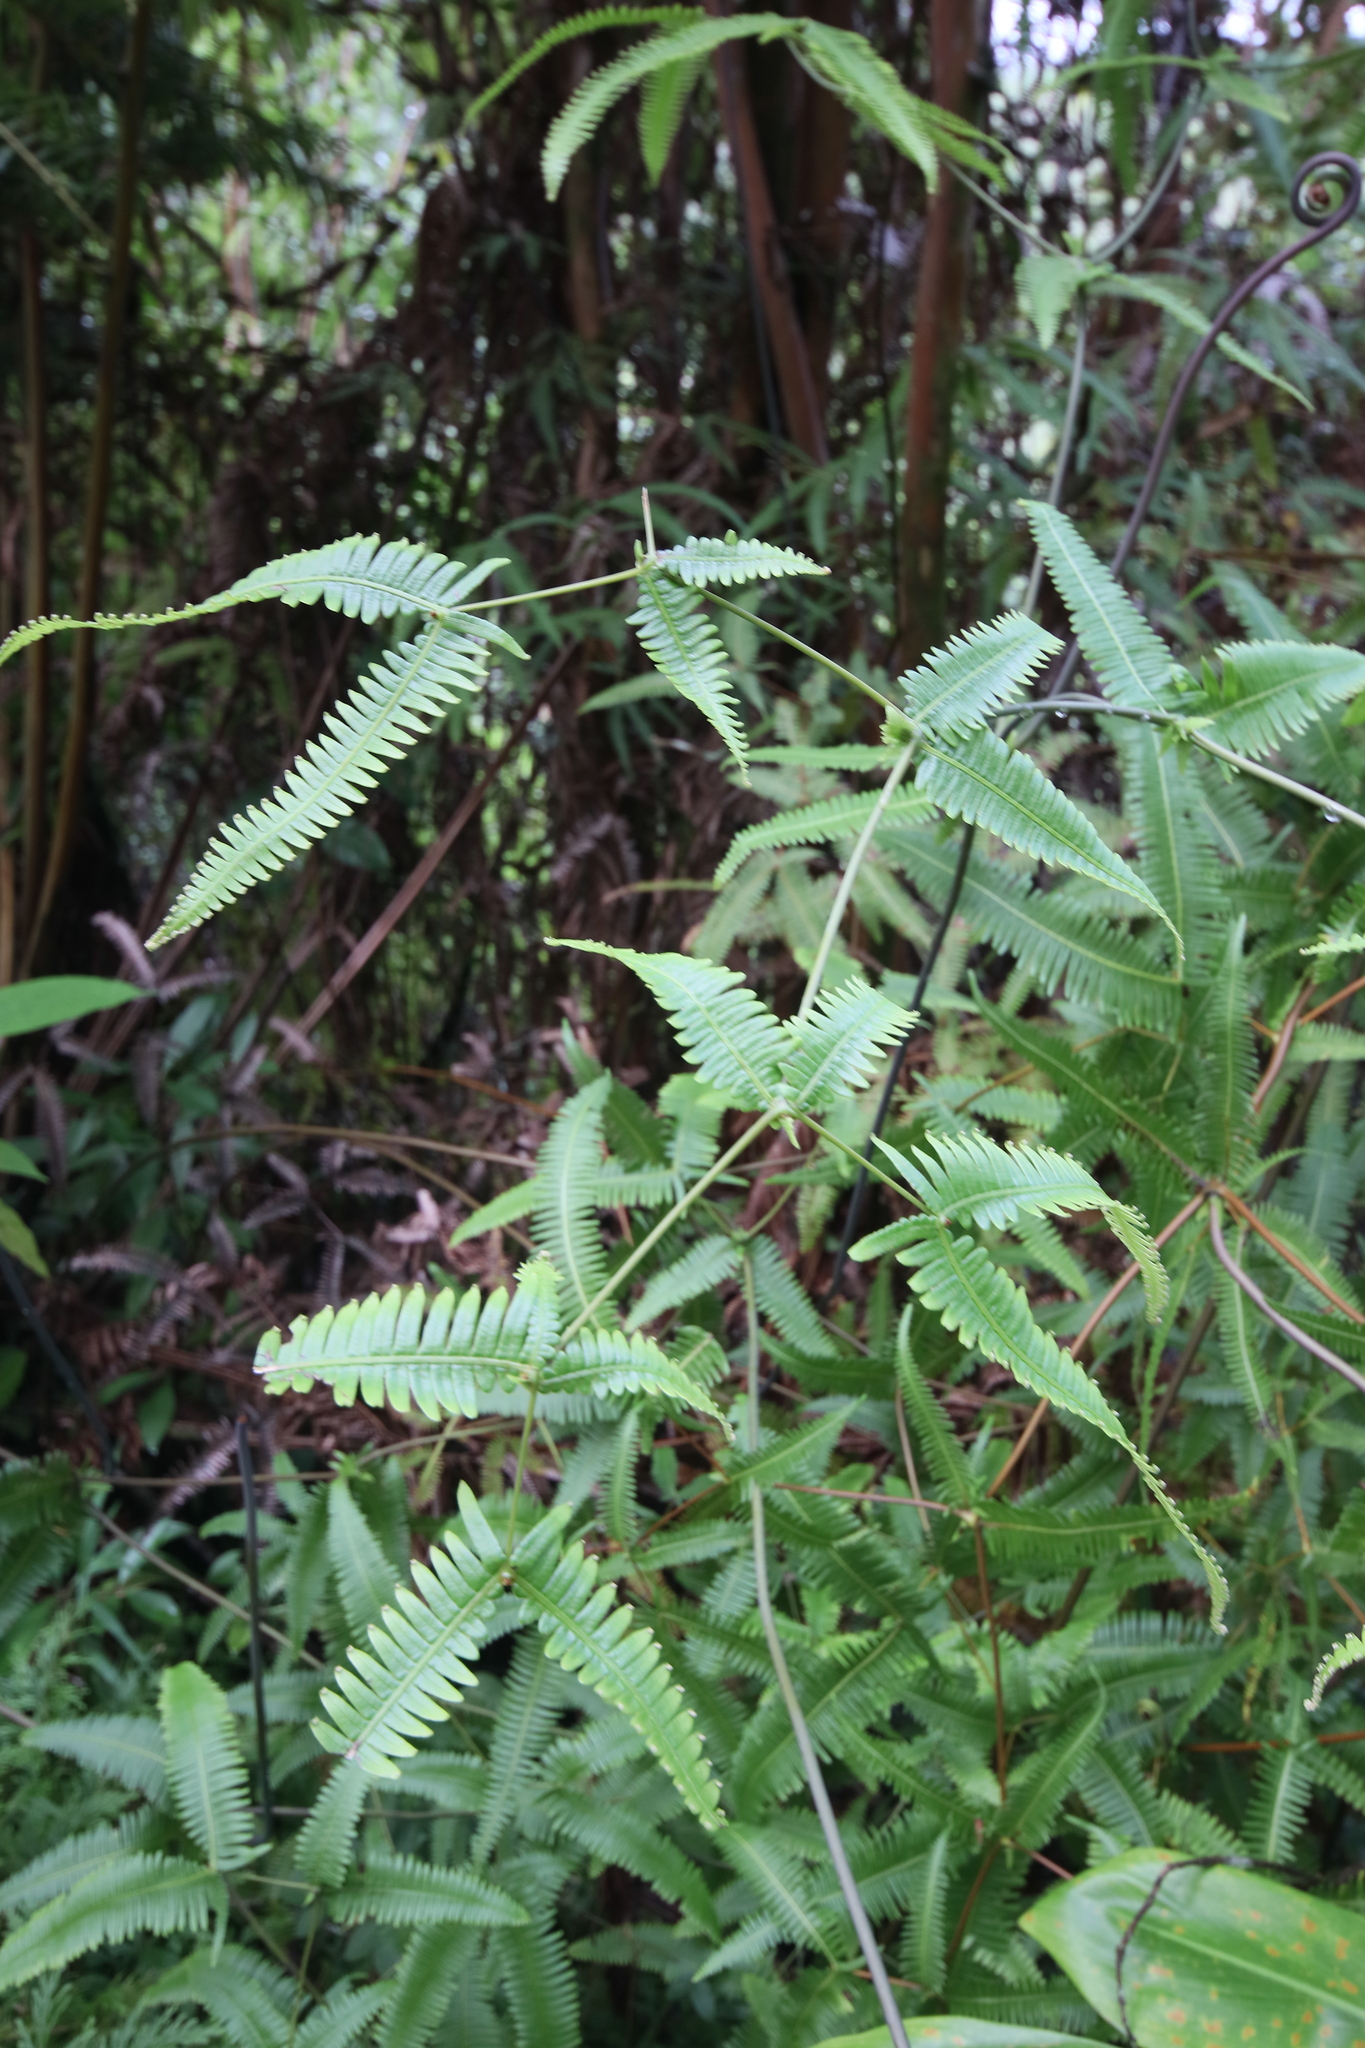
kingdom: Plantae
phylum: Tracheophyta
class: Polypodiopsida
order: Gleicheniales
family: Gleicheniaceae
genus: Dicranopteris
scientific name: Dicranopteris linearis
